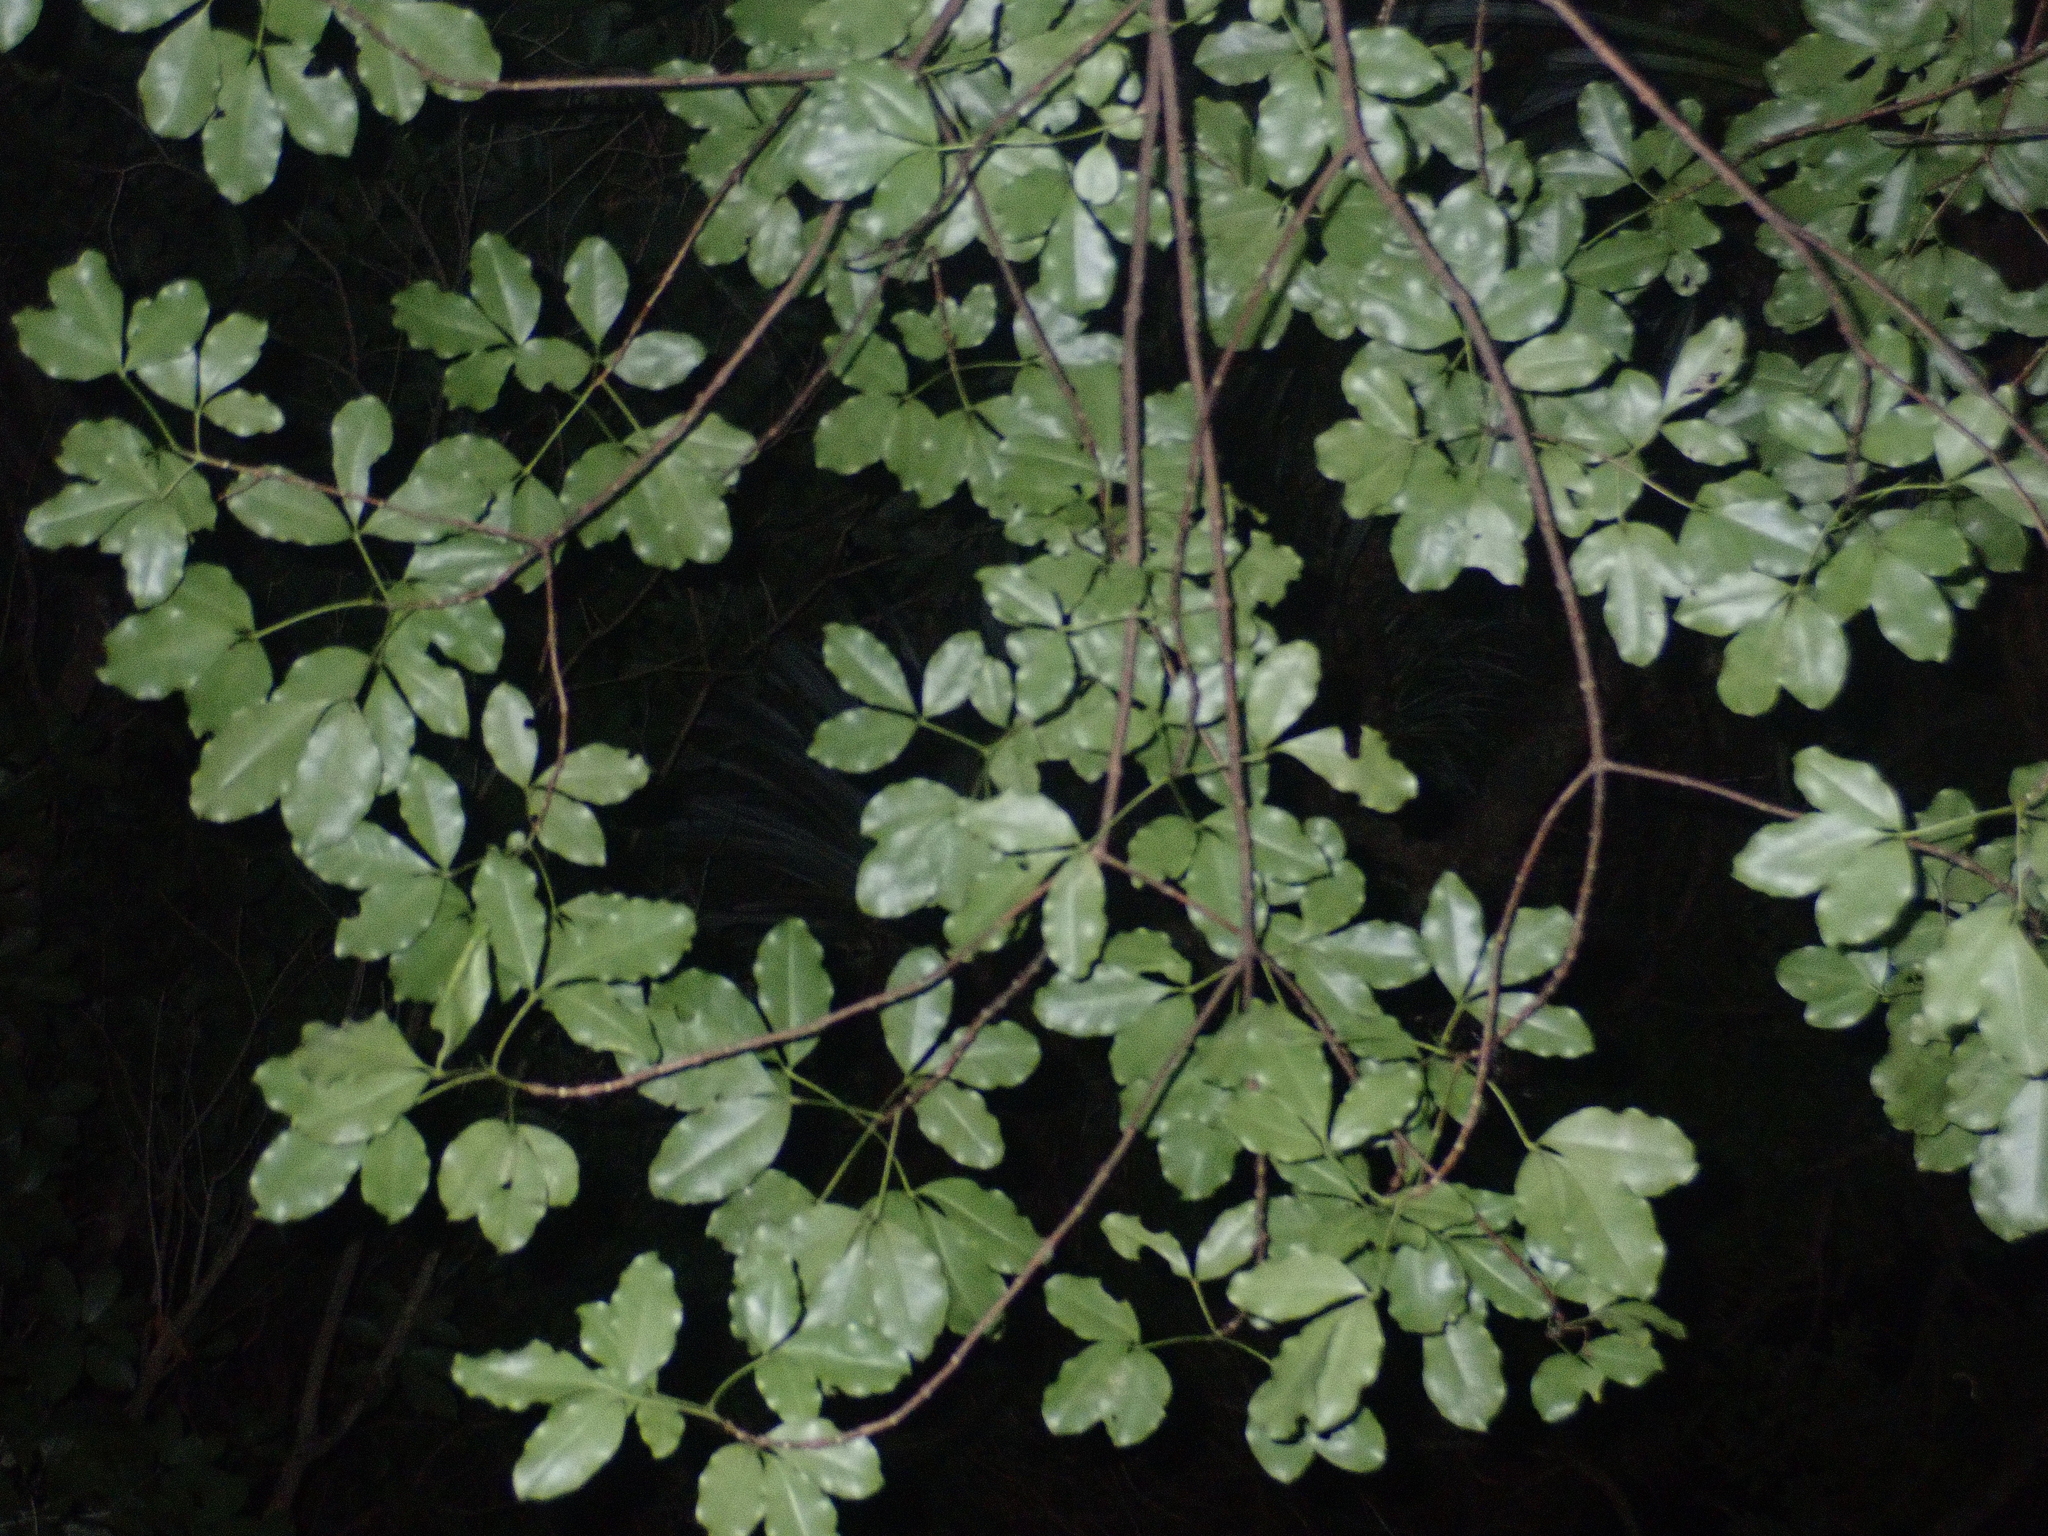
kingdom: Plantae
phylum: Tracheophyta
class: Magnoliopsida
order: Sapindales
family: Rutaceae
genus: Melicope
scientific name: Melicope ternata
